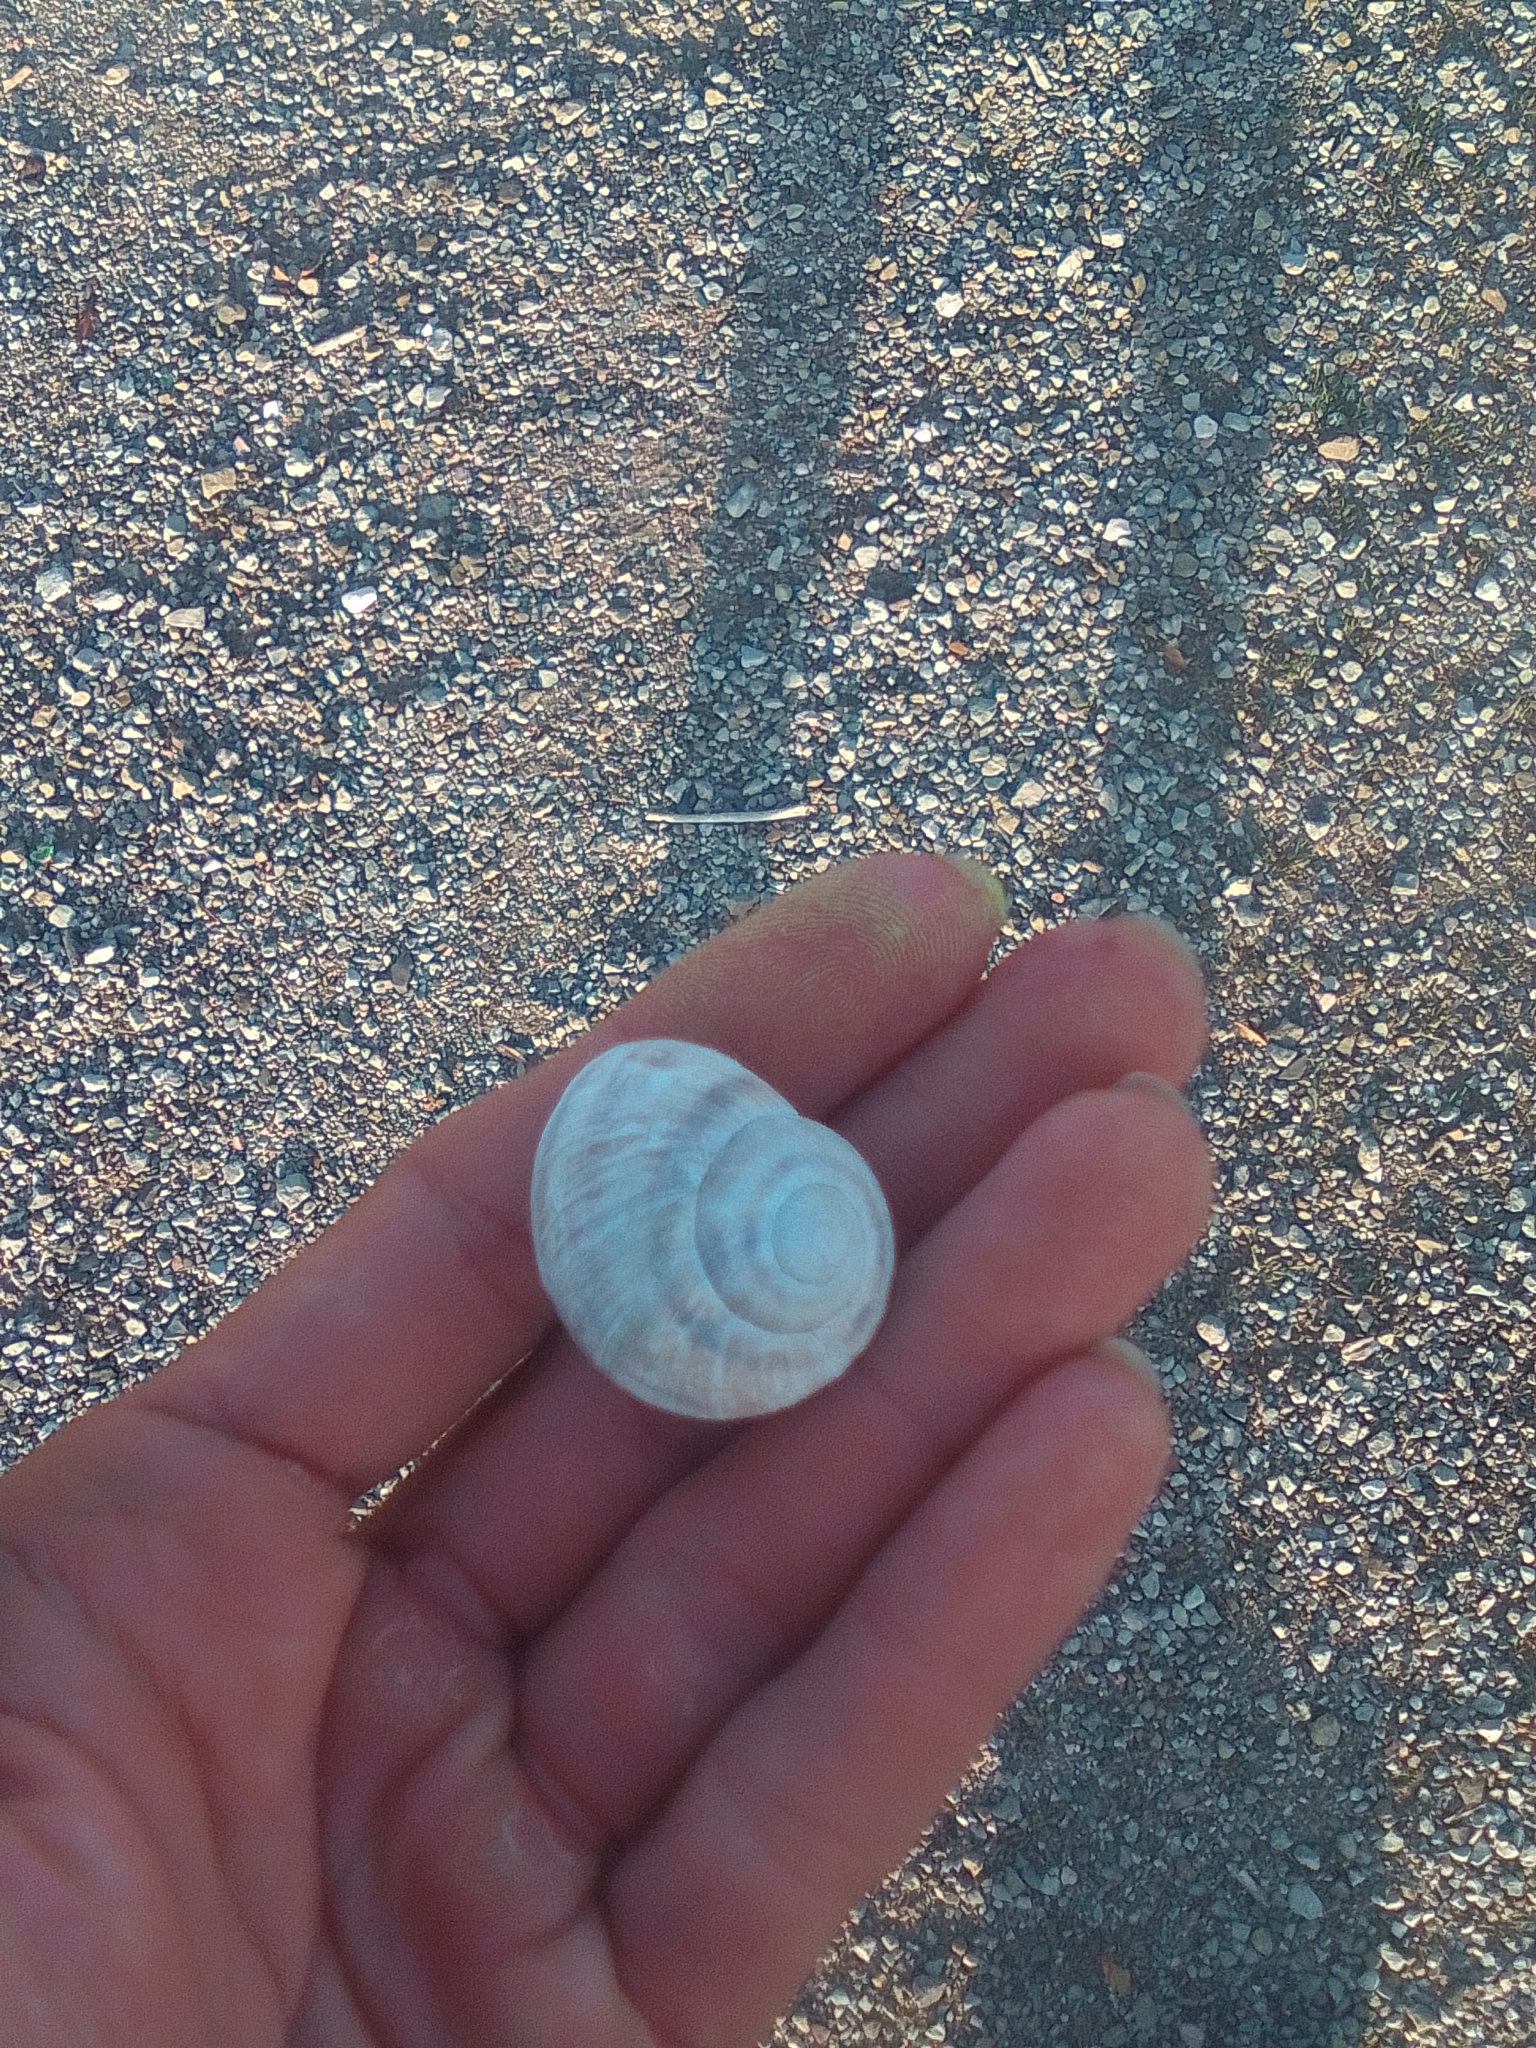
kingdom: Animalia
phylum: Mollusca
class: Gastropoda
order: Stylommatophora
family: Helicidae
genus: Helix
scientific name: Helix albescens
